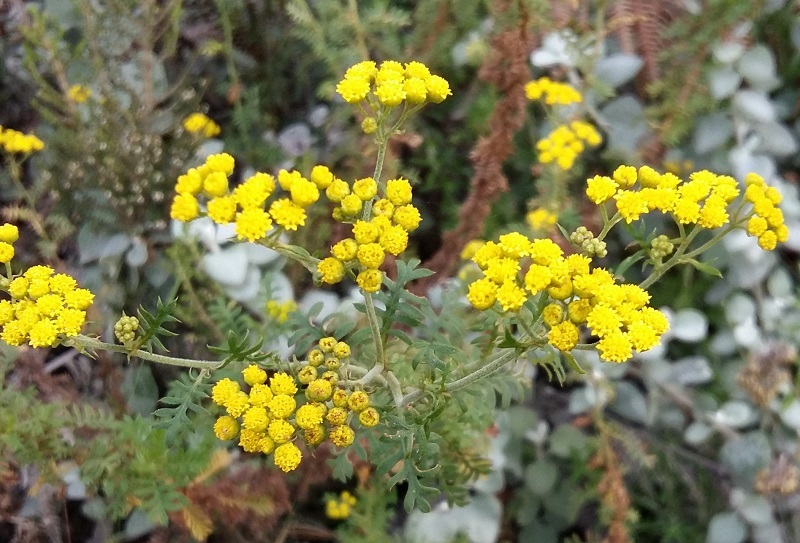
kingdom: Plantae
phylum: Tracheophyta
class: Magnoliopsida
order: Asterales
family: Asteraceae
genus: Hippia
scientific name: Hippia frutescens
